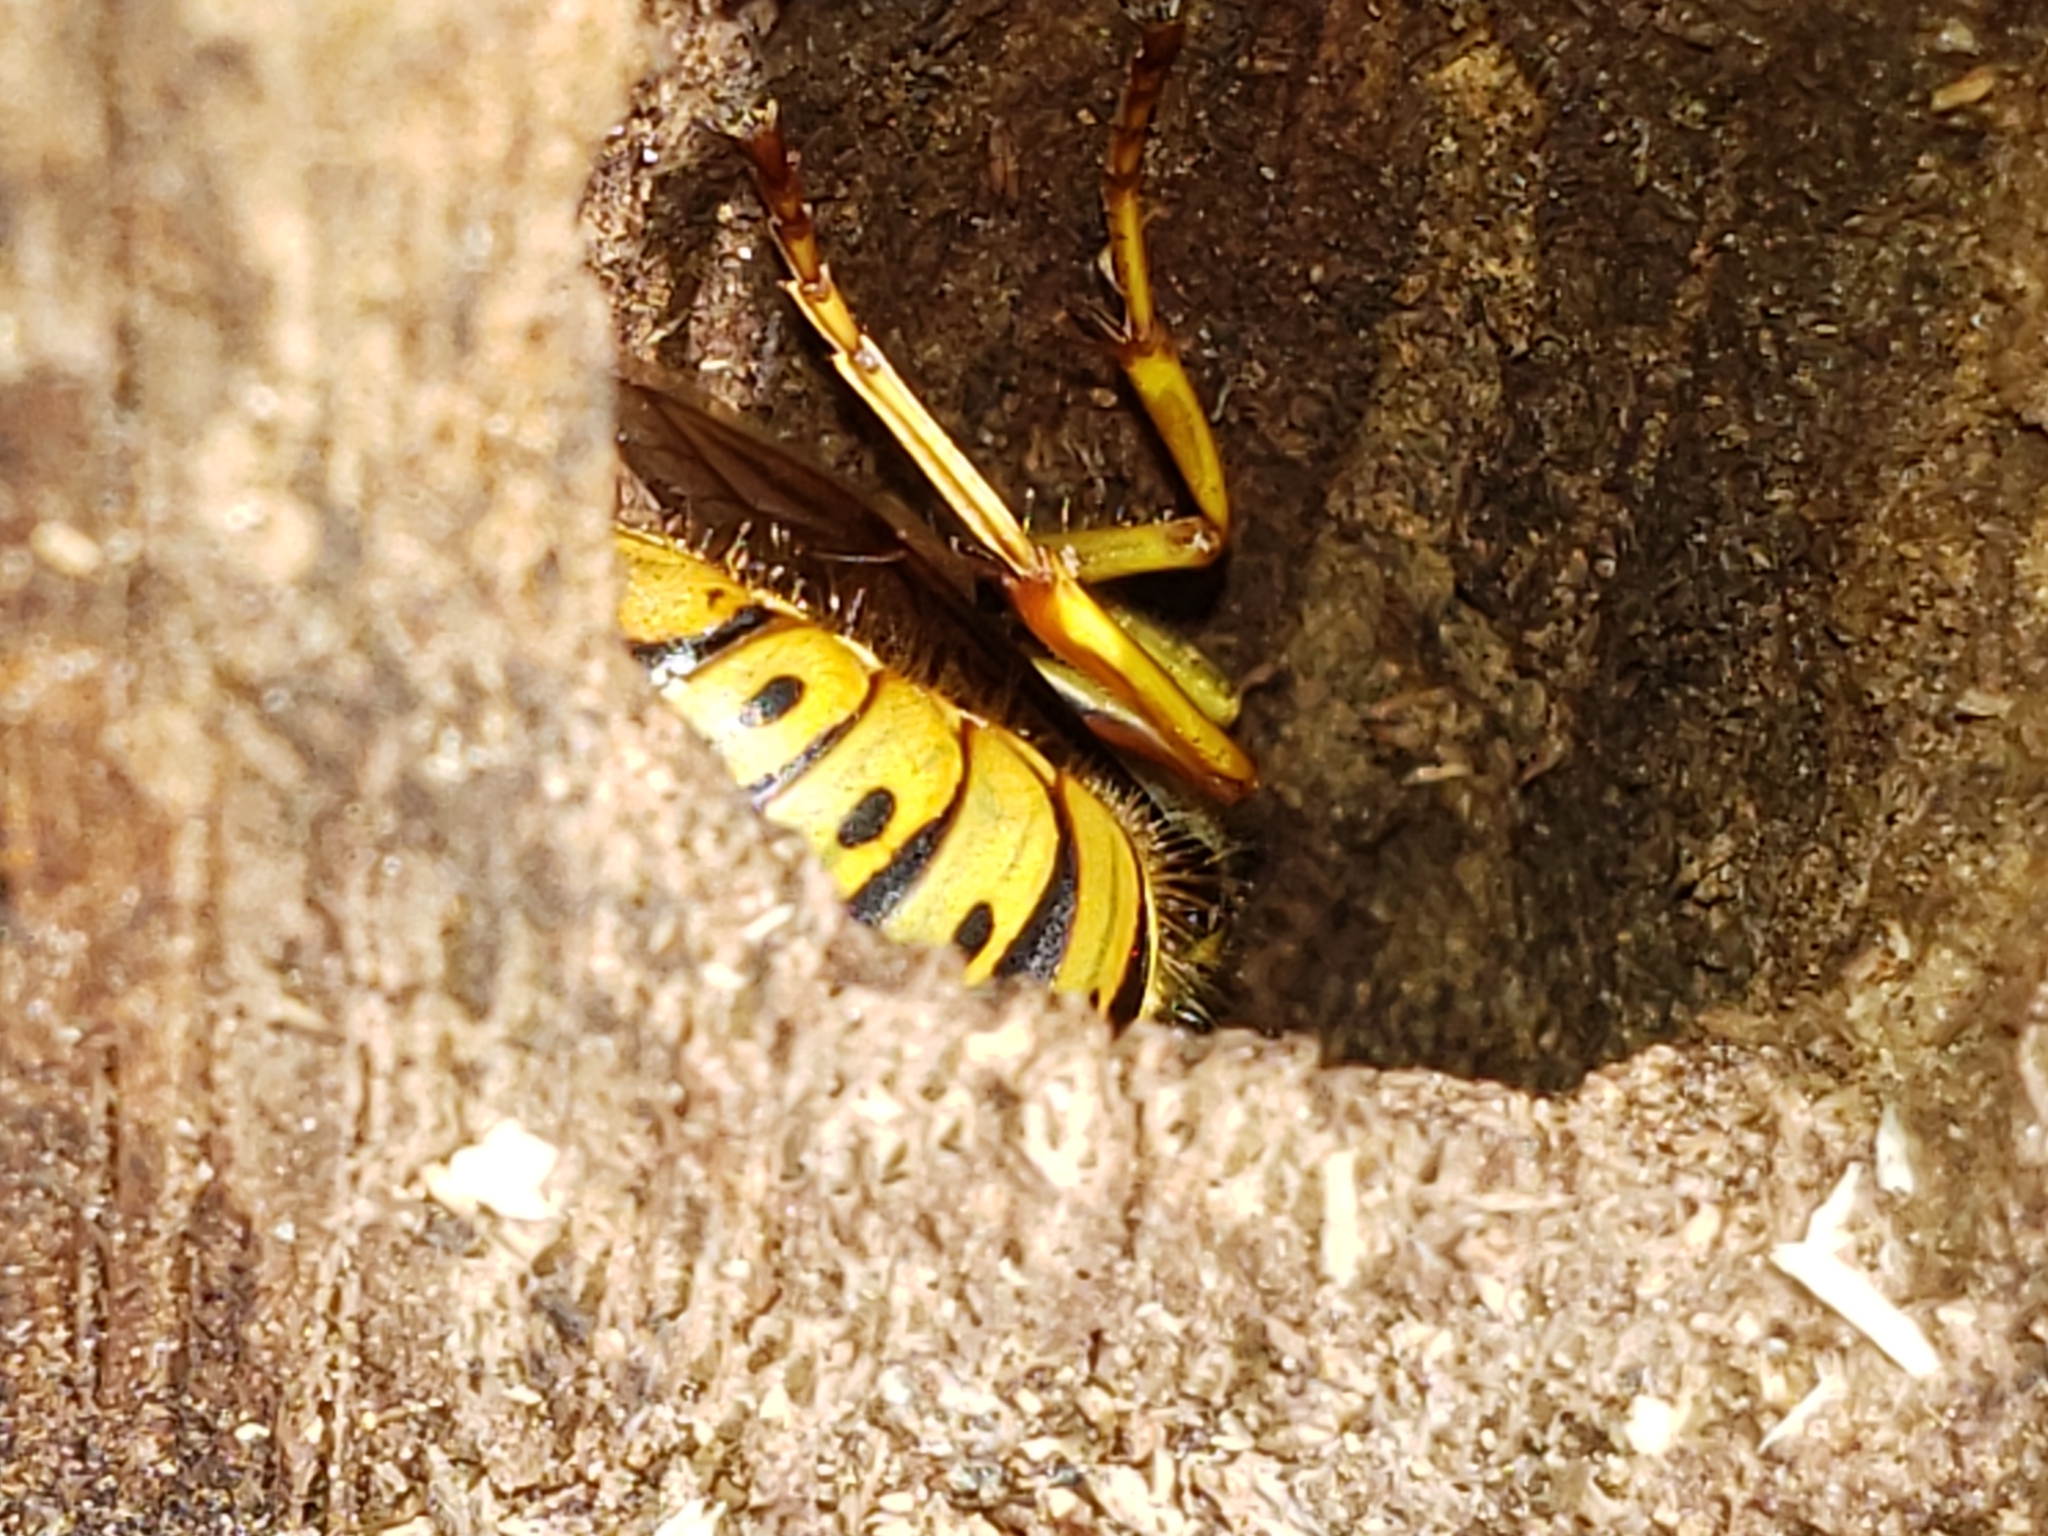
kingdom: Animalia
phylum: Arthropoda
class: Insecta
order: Hymenoptera
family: Vespidae
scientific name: Vespidae
